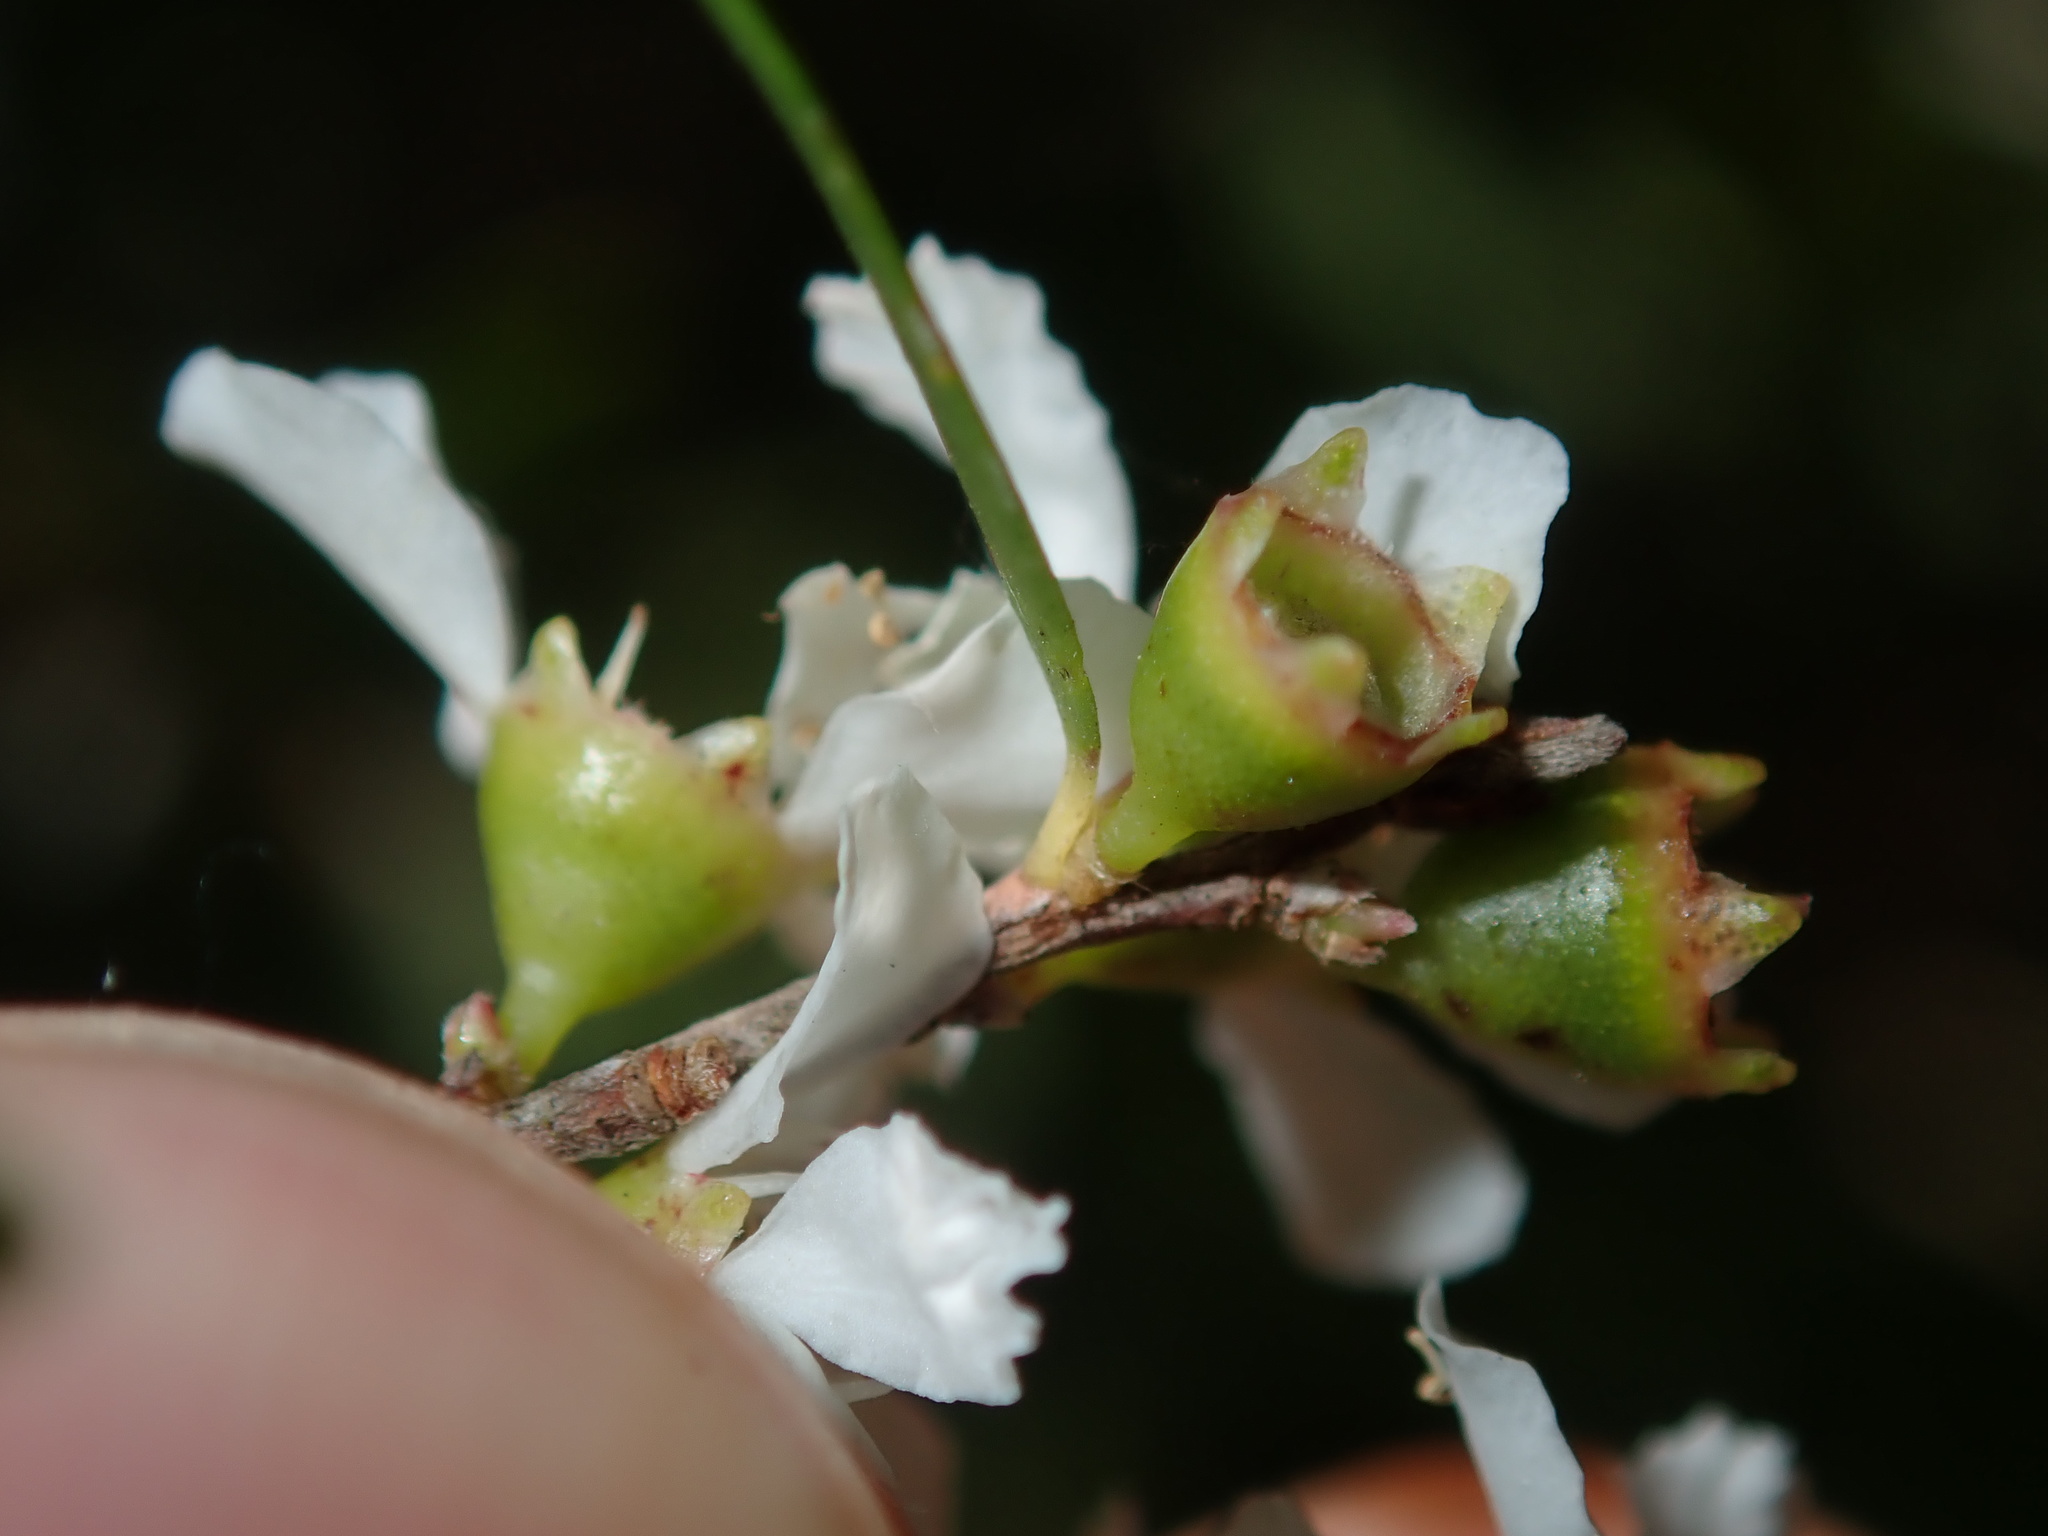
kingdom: Plantae
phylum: Tracheophyta
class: Magnoliopsida
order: Myrtales
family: Myrtaceae
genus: Leptospermum
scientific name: Leptospermum polygalifolium
